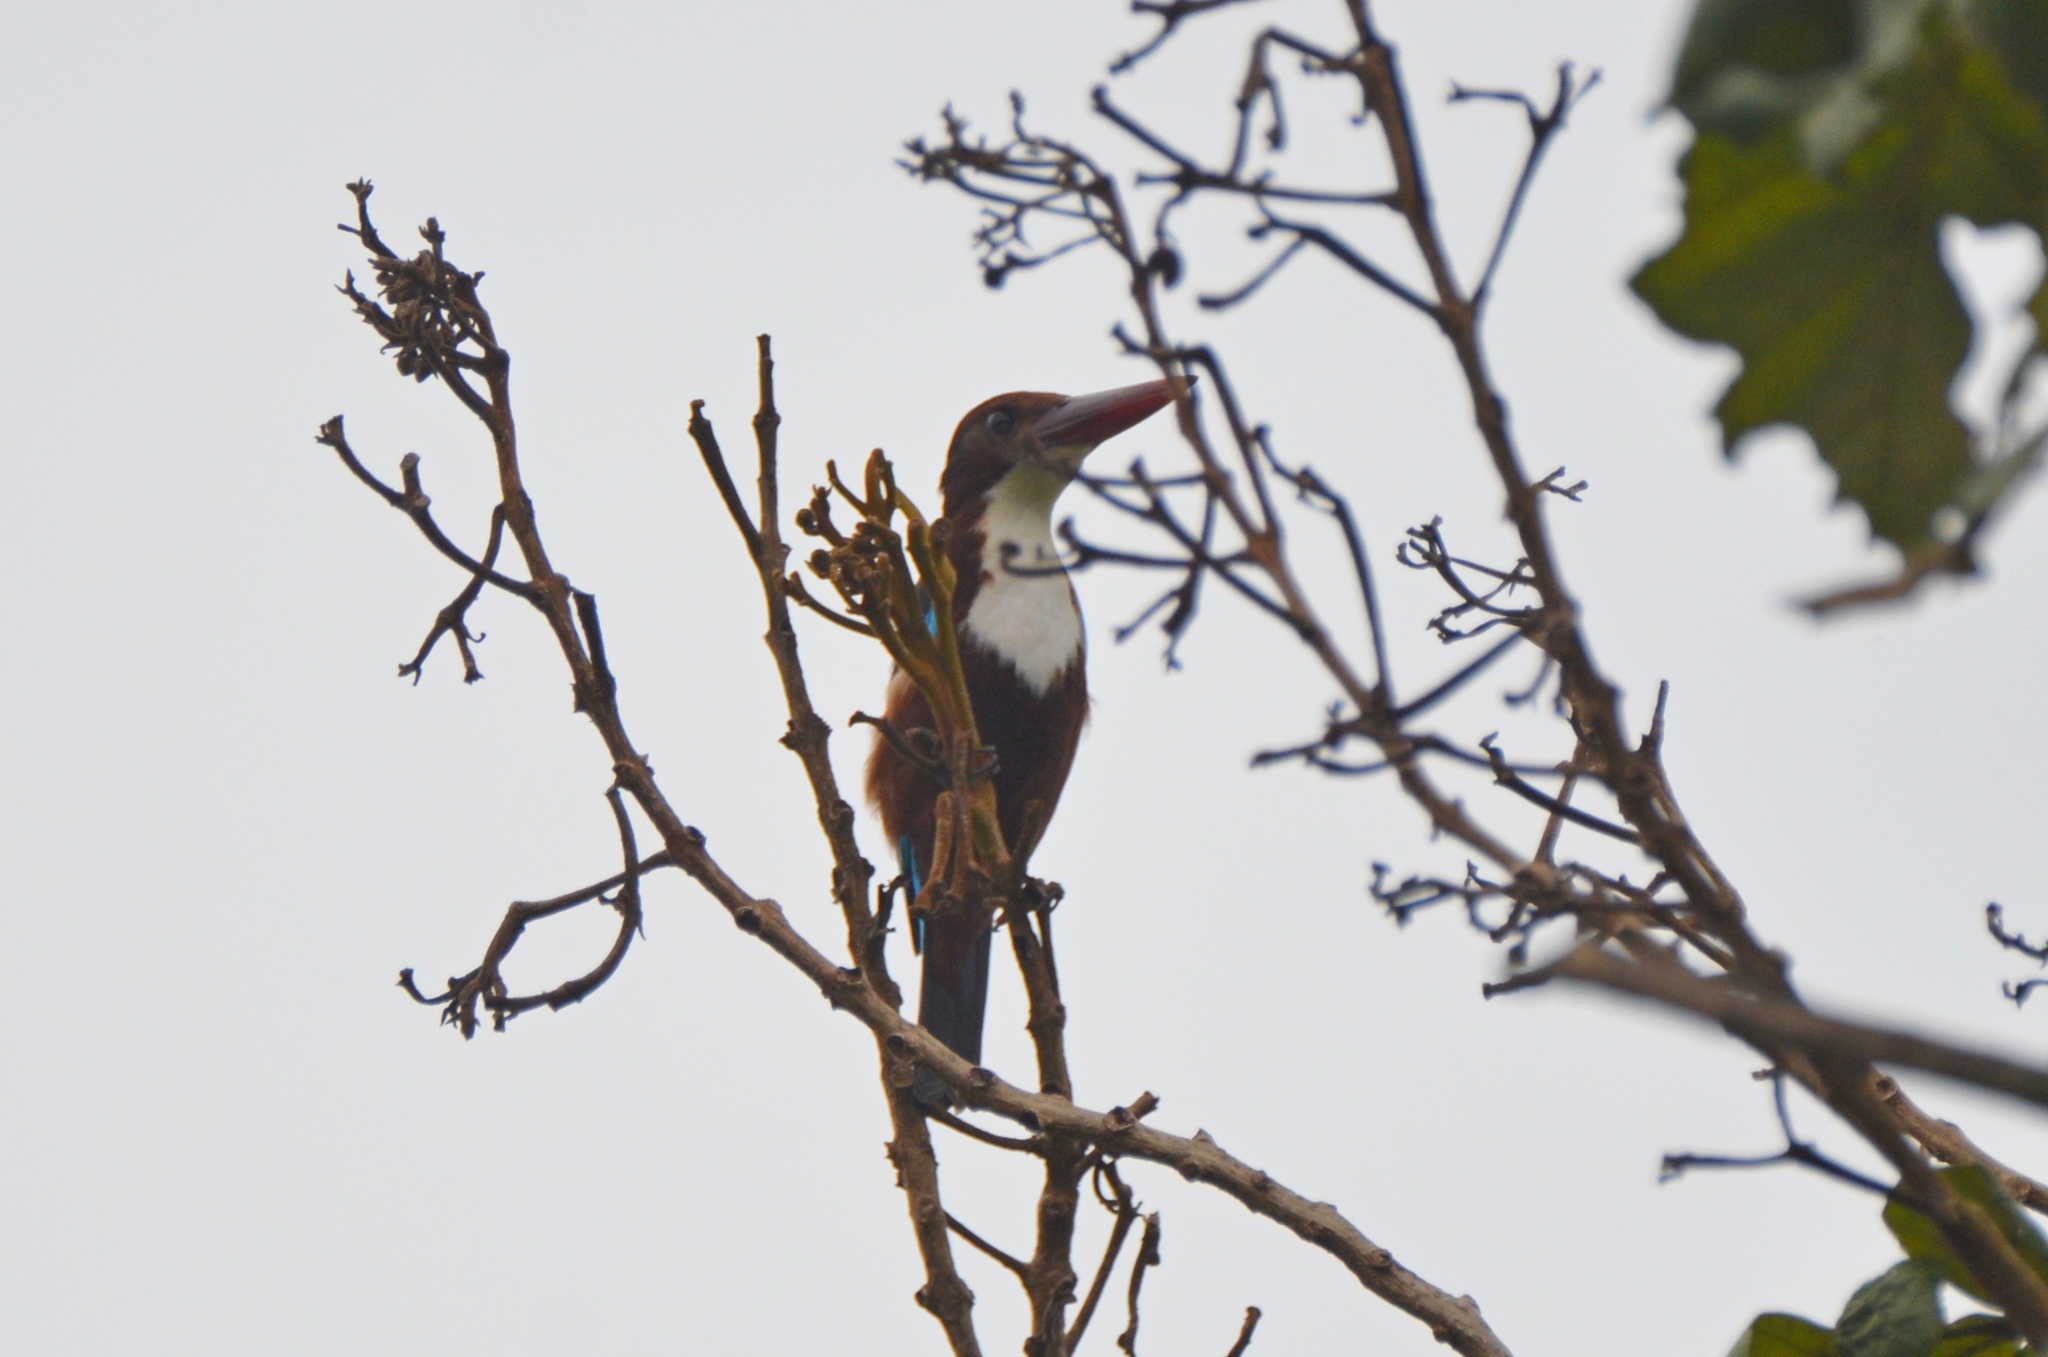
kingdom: Animalia
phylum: Chordata
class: Aves
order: Coraciiformes
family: Alcedinidae
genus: Halcyon
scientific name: Halcyon smyrnensis
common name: White-throated kingfisher
